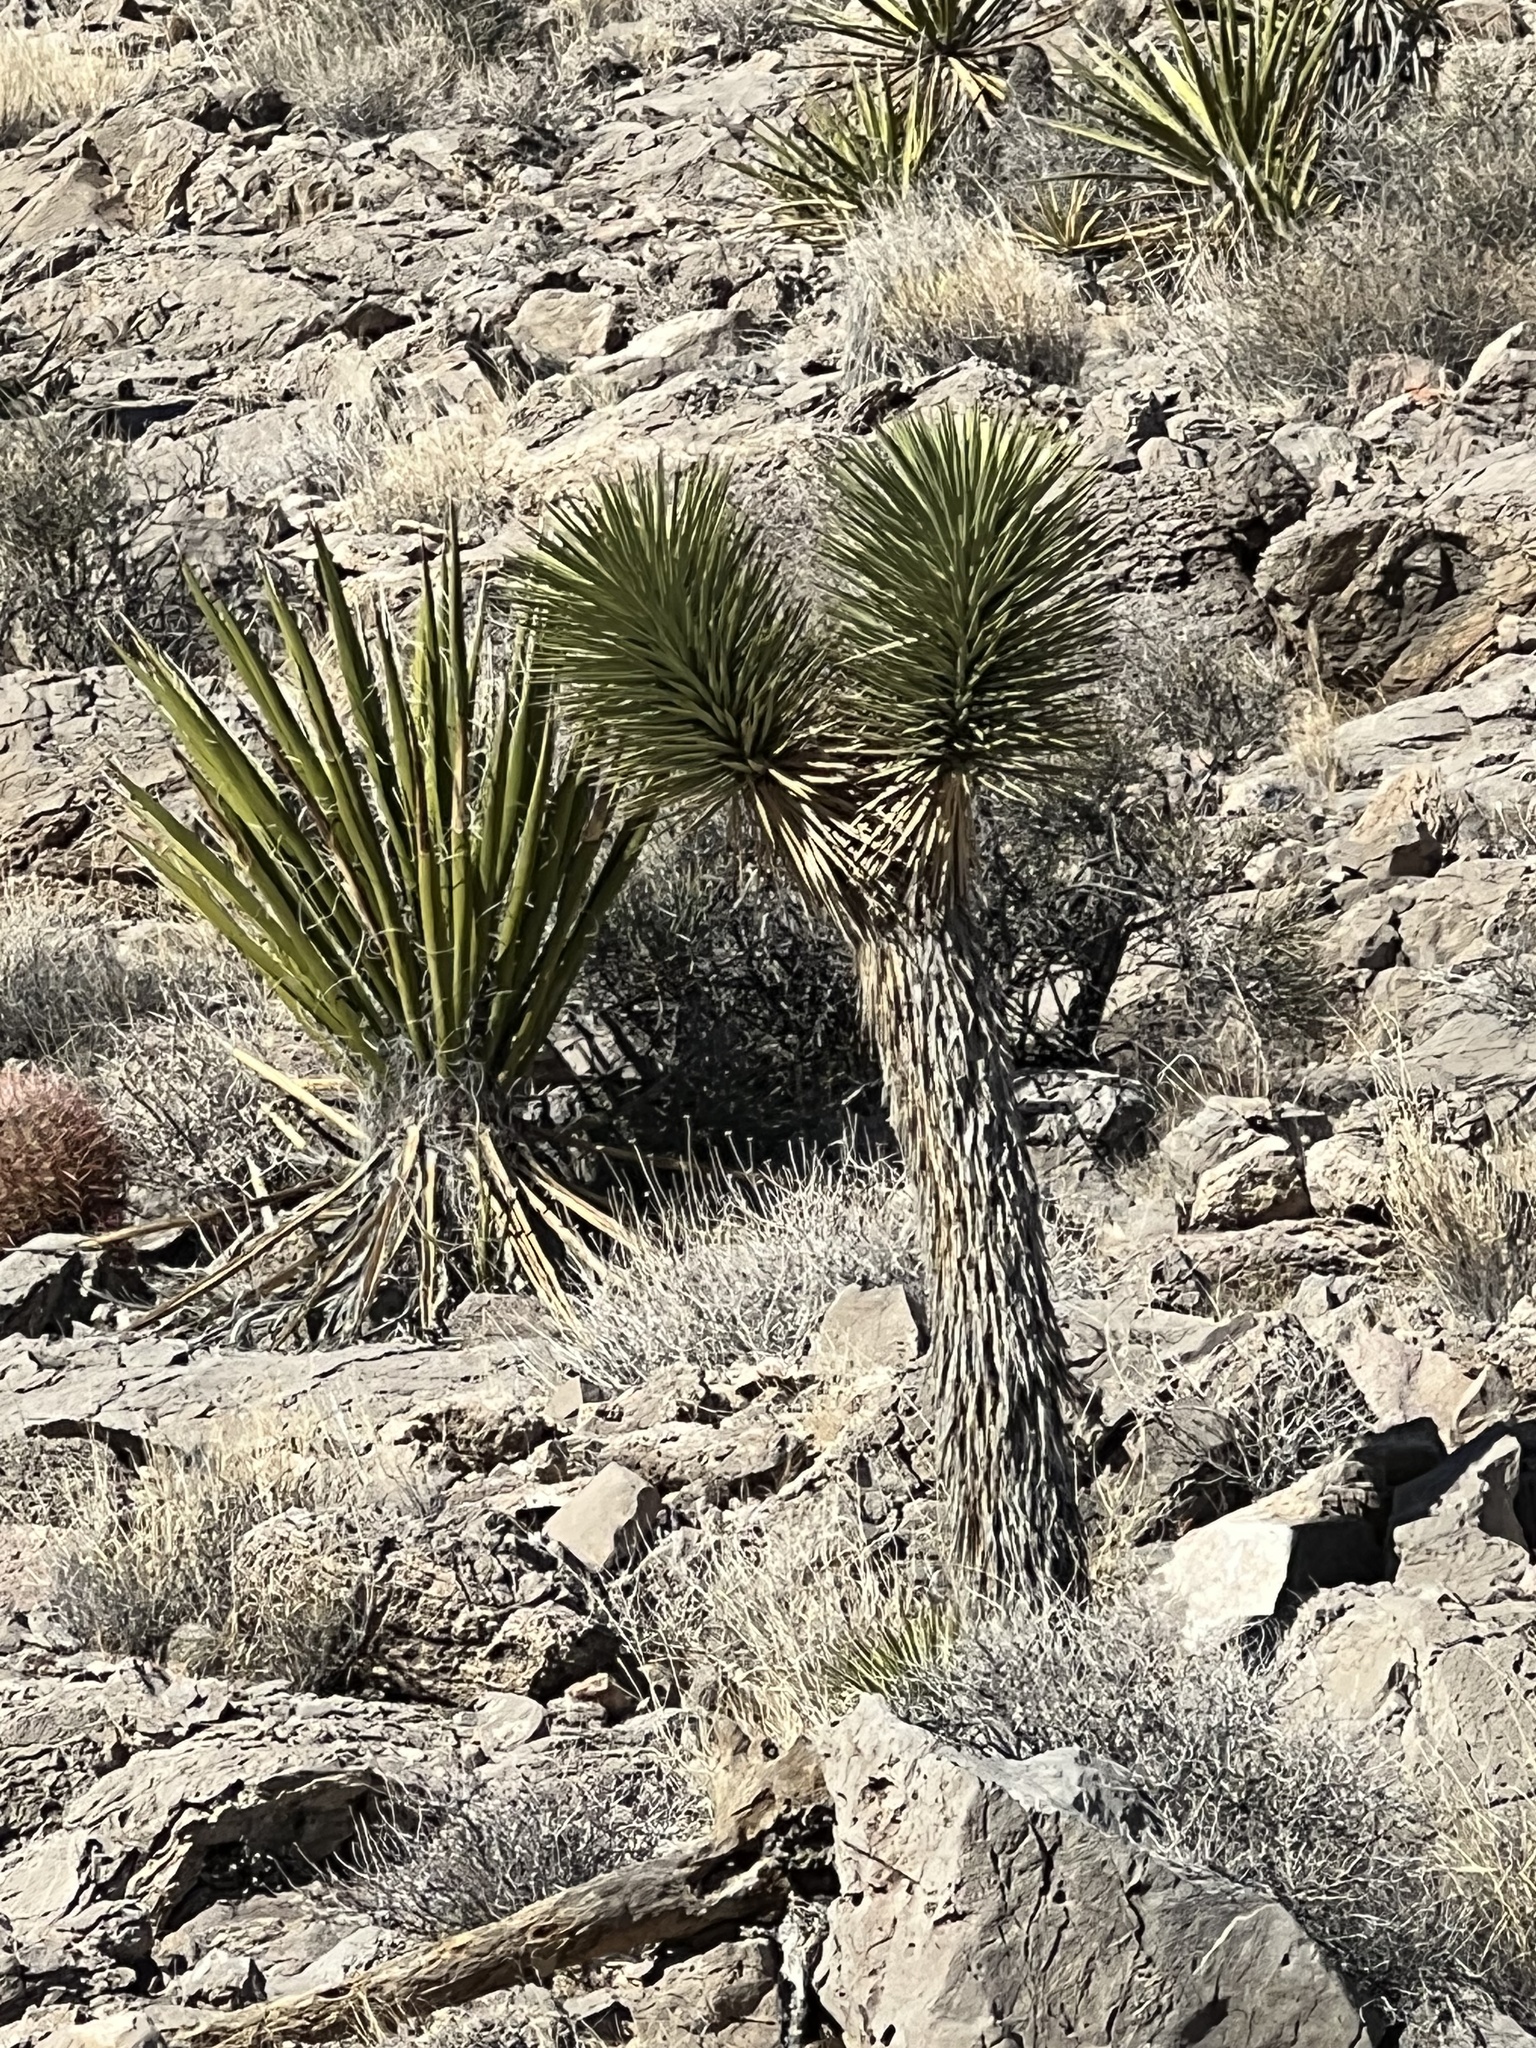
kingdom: Plantae
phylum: Tracheophyta
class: Liliopsida
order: Asparagales
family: Asparagaceae
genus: Yucca
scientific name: Yucca brevifolia
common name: Joshua tree
